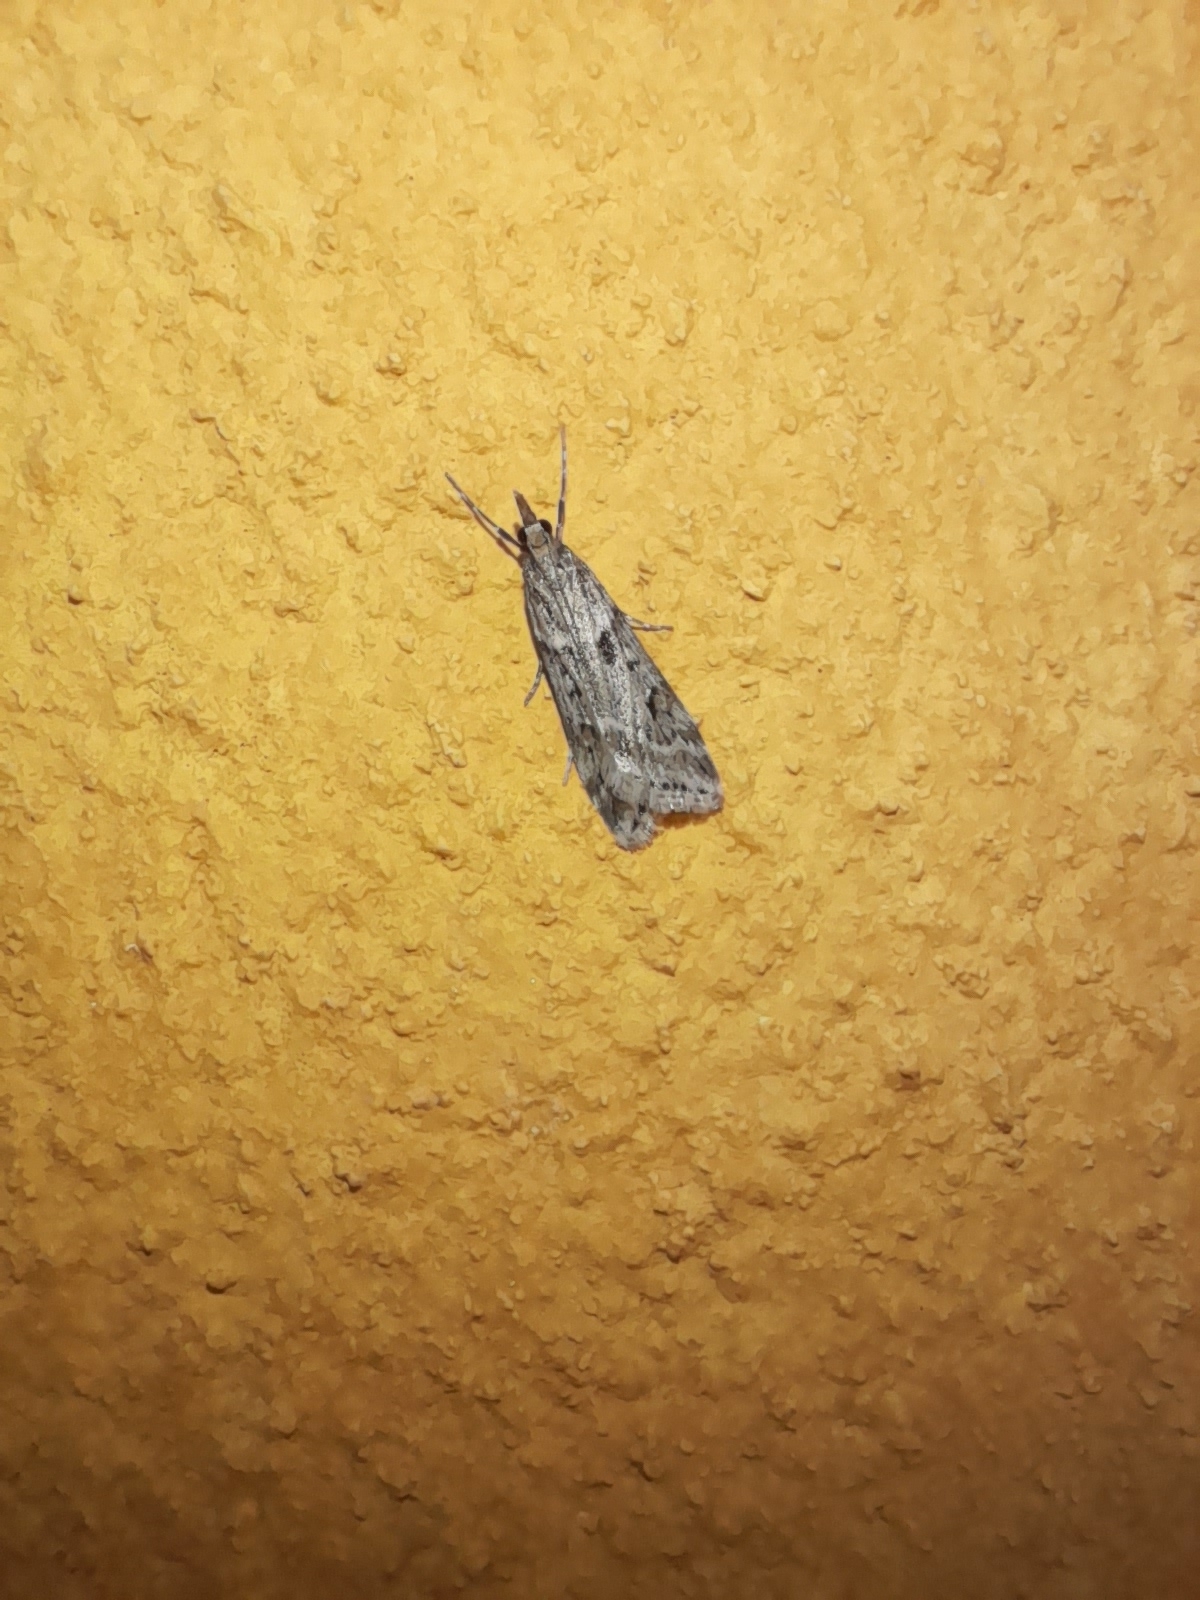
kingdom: Animalia
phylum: Arthropoda
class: Insecta
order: Lepidoptera
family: Crambidae
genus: Eudonia
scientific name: Eudonia angustea
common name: Narrow-winged grey
